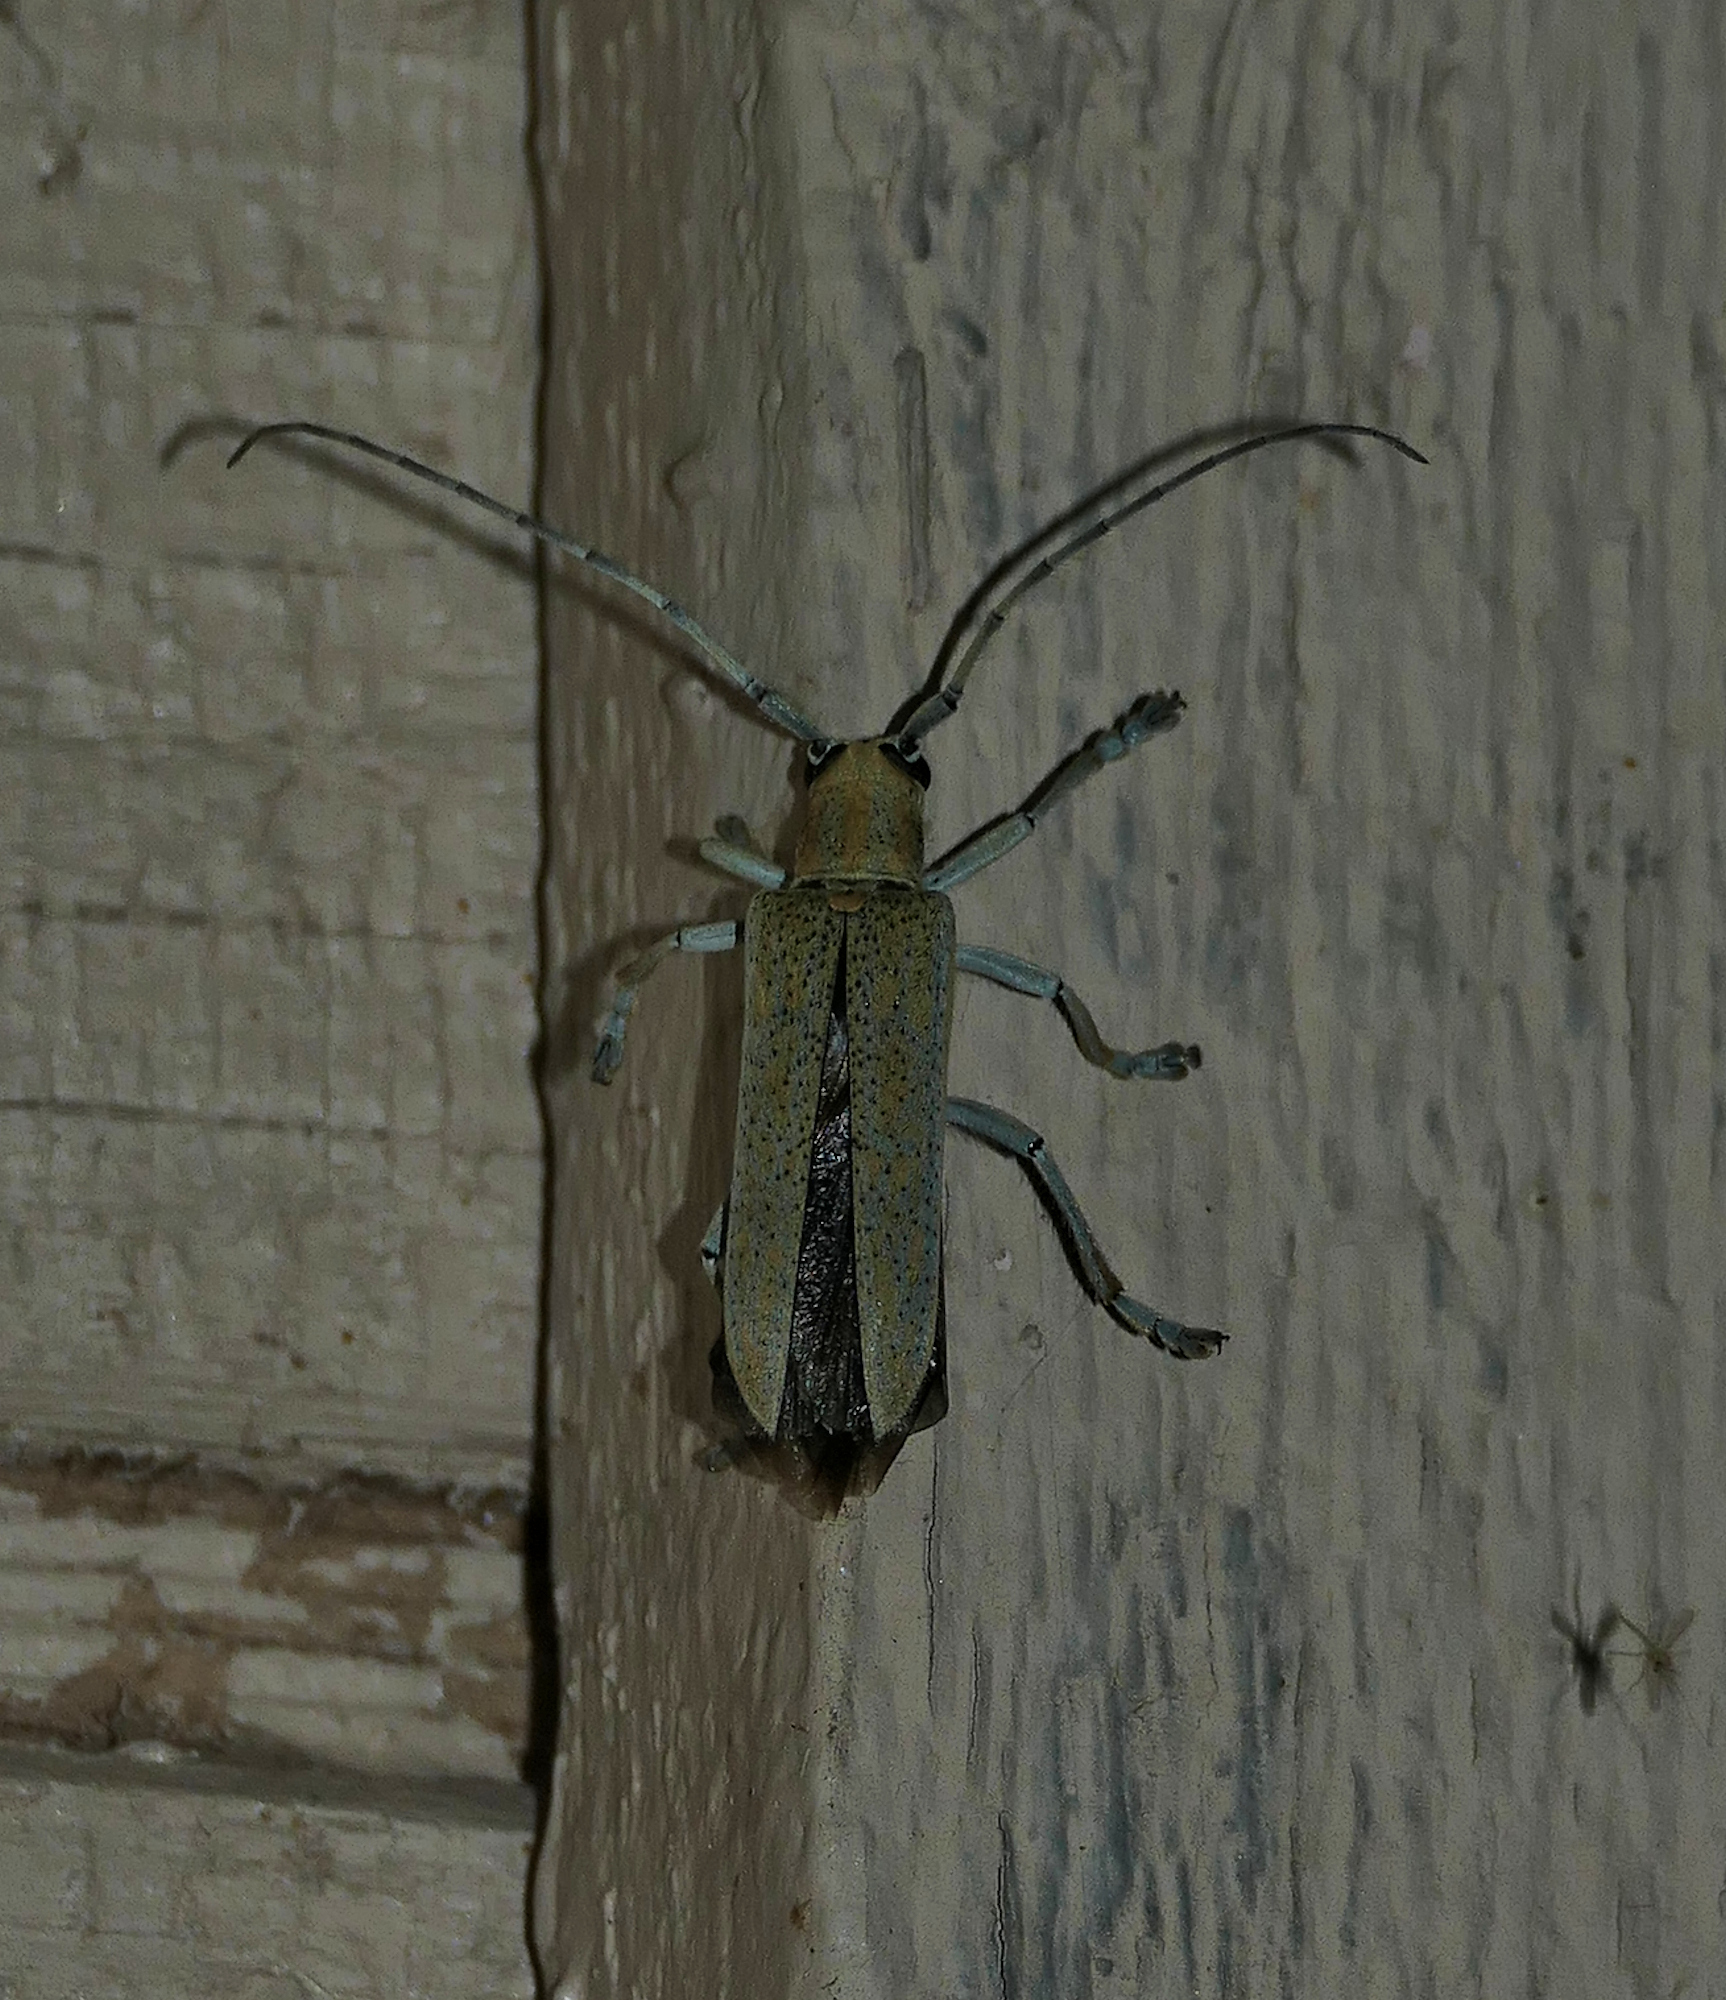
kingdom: Animalia
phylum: Arthropoda
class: Insecta
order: Coleoptera
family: Cerambycidae
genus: Saperda
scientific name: Saperda calcarata
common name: Poplar borer
